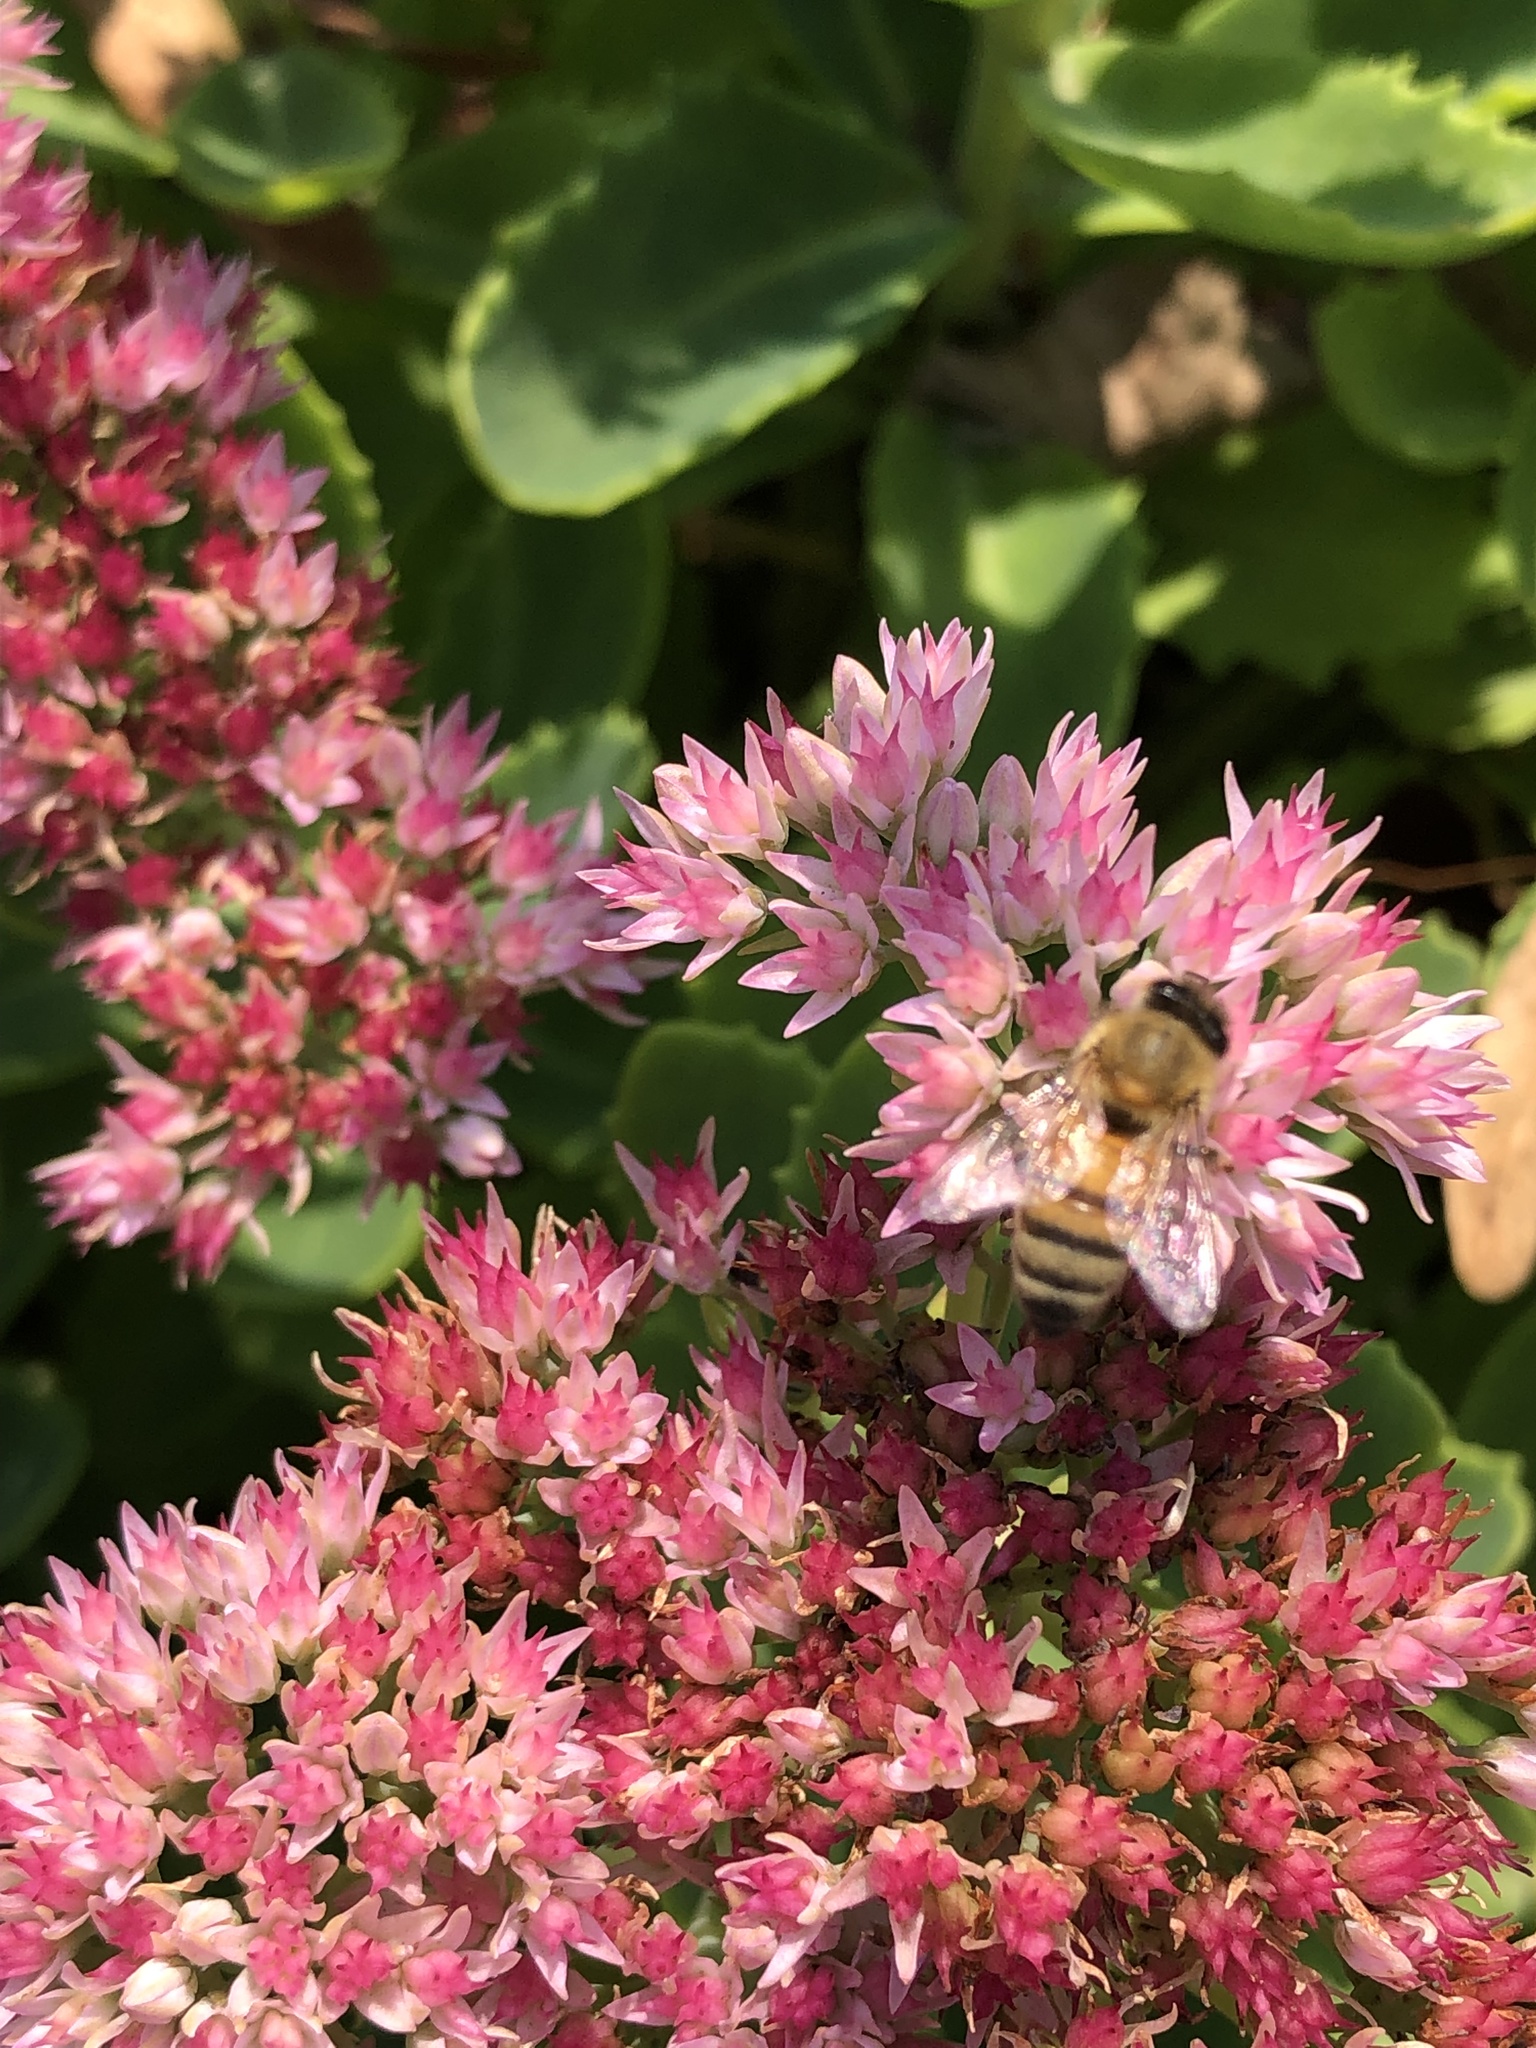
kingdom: Animalia
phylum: Arthropoda
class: Insecta
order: Hymenoptera
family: Apidae
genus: Apis
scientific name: Apis mellifera
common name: Honey bee
